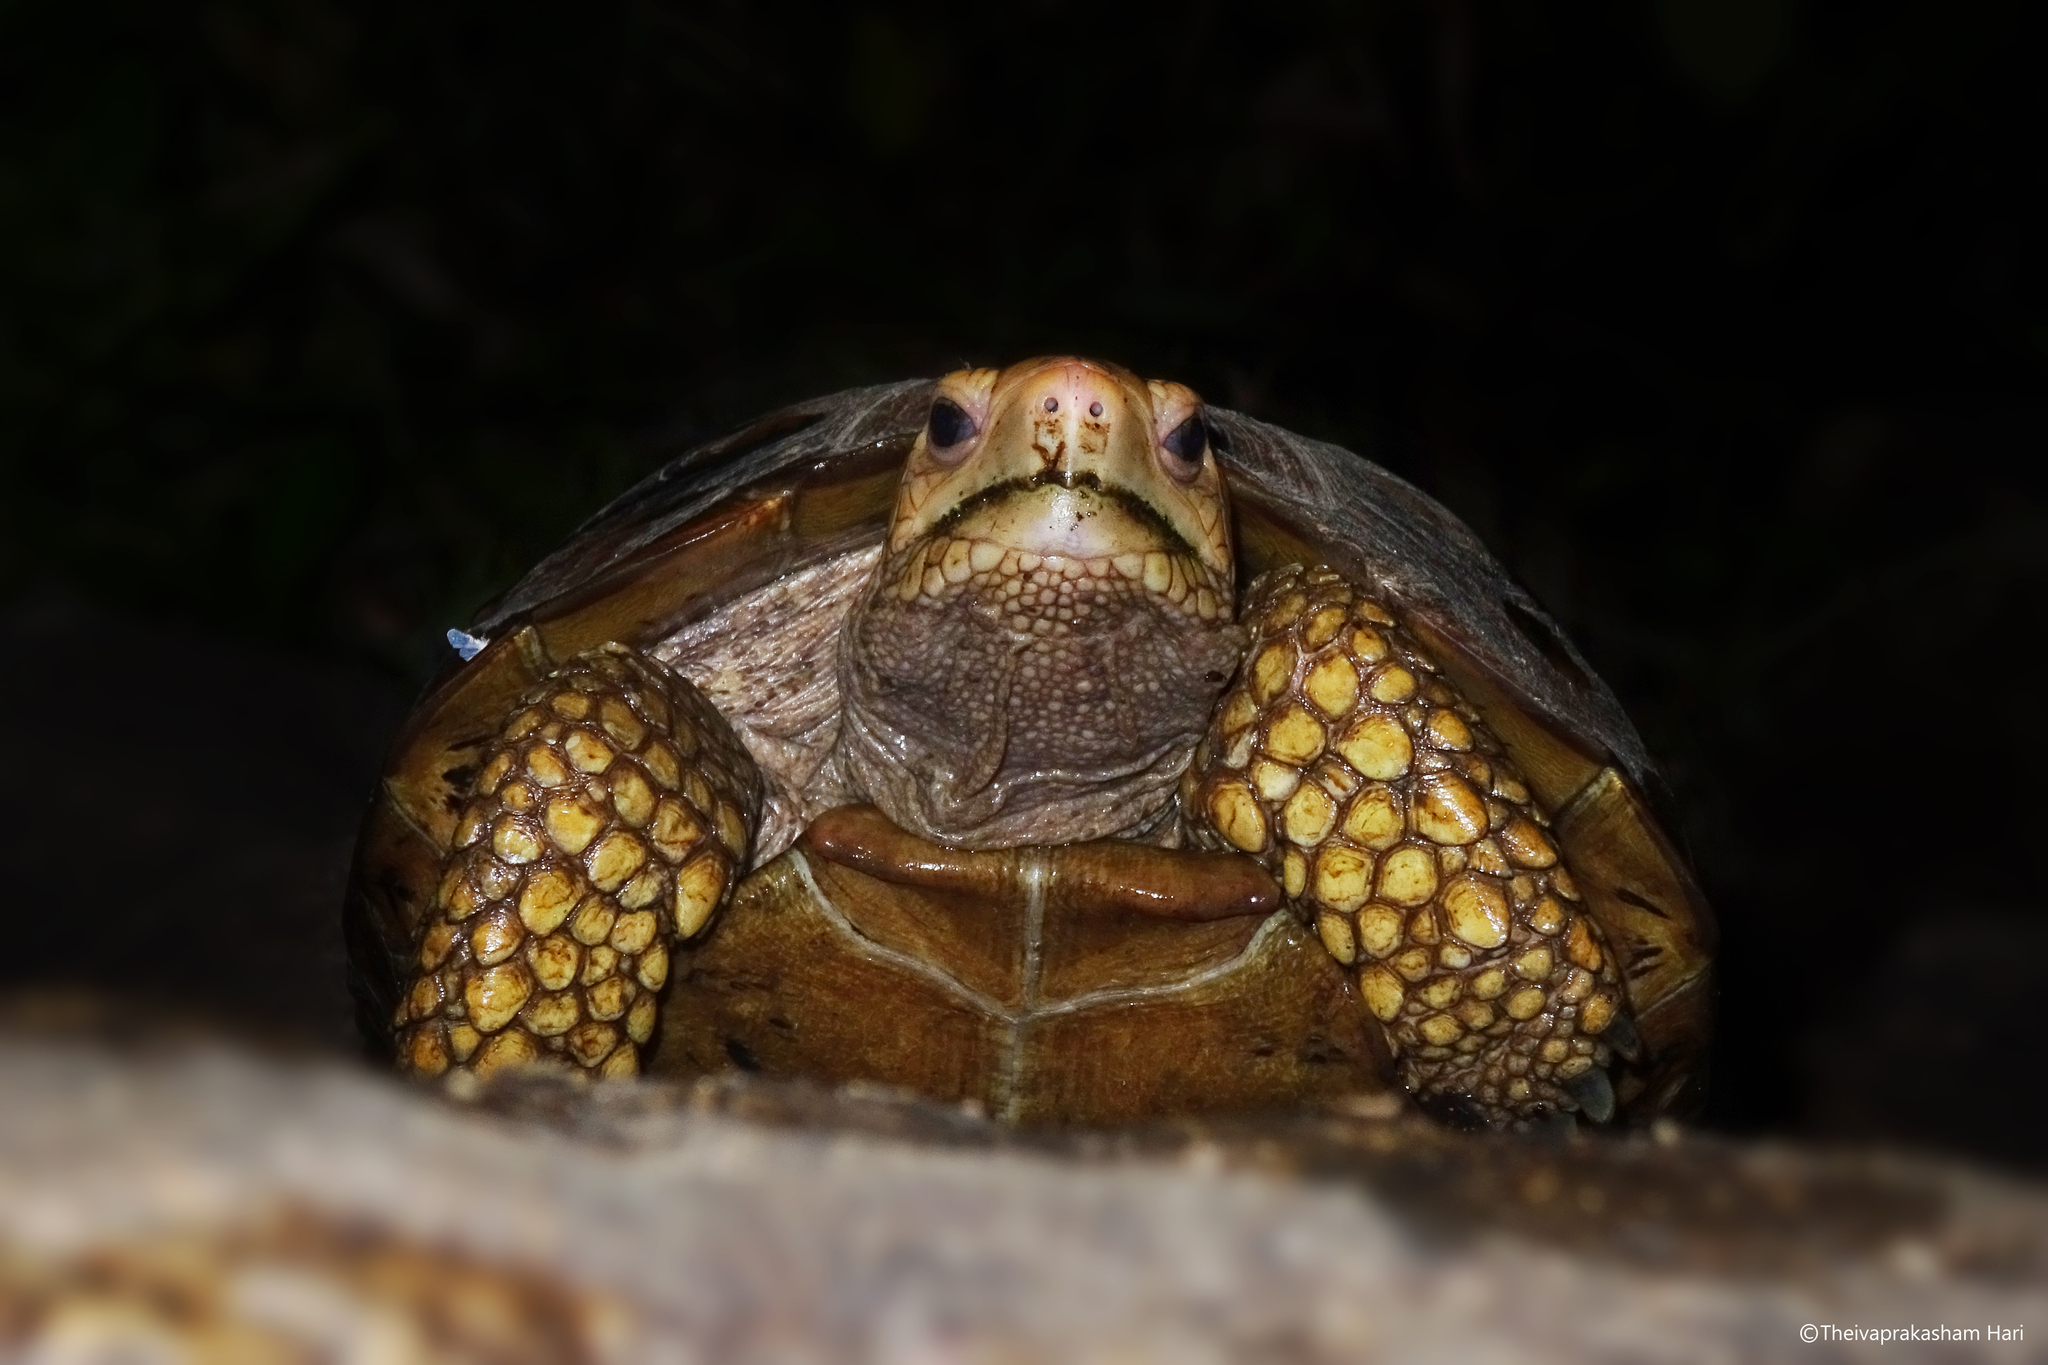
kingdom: Animalia
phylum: Chordata
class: Testudines
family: Testudinidae
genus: Indotestudo
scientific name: Indotestudo travancorica
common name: Travancore tortoise
